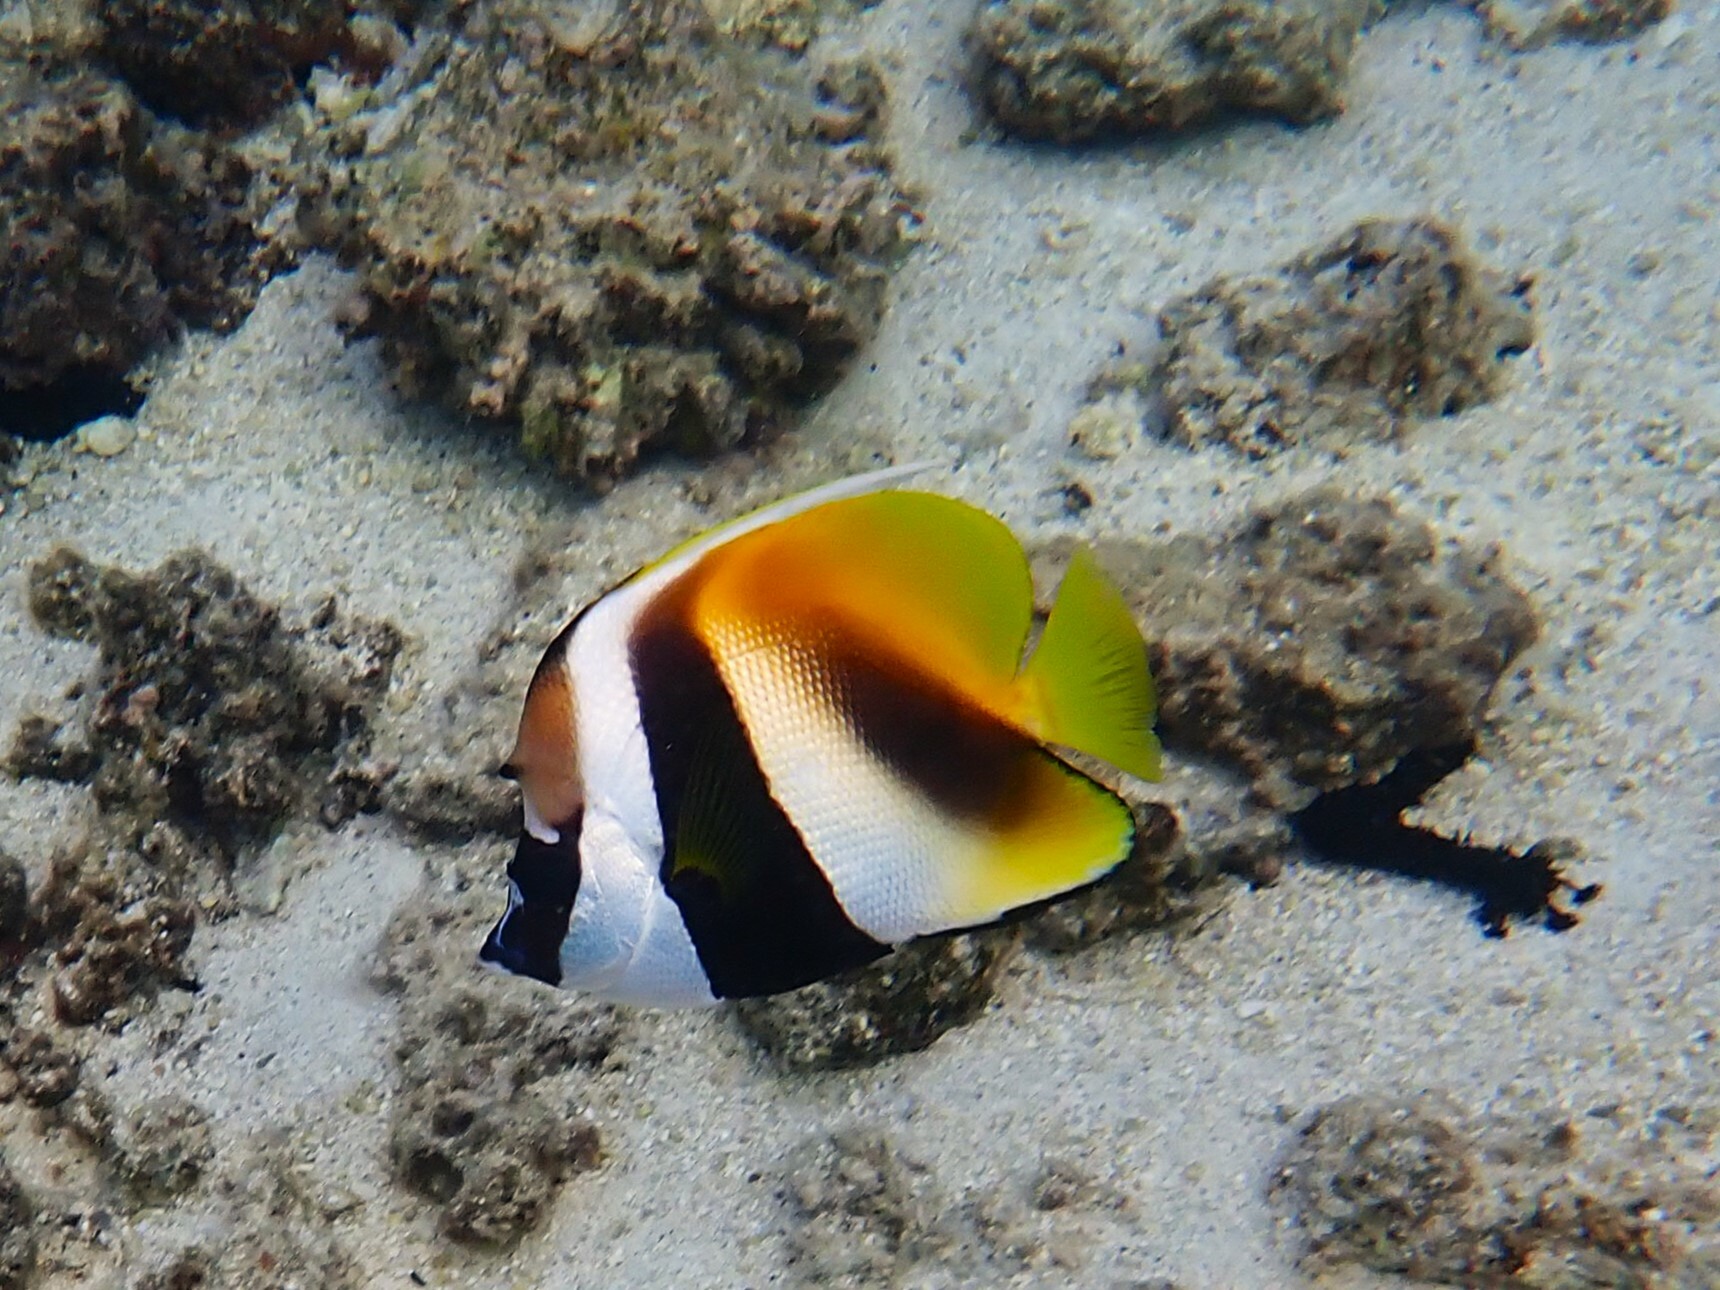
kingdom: Animalia
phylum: Chordata
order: Perciformes
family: Chaetodontidae
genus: Heniochus
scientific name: Heniochus monoceros
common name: Masked bannerfish
